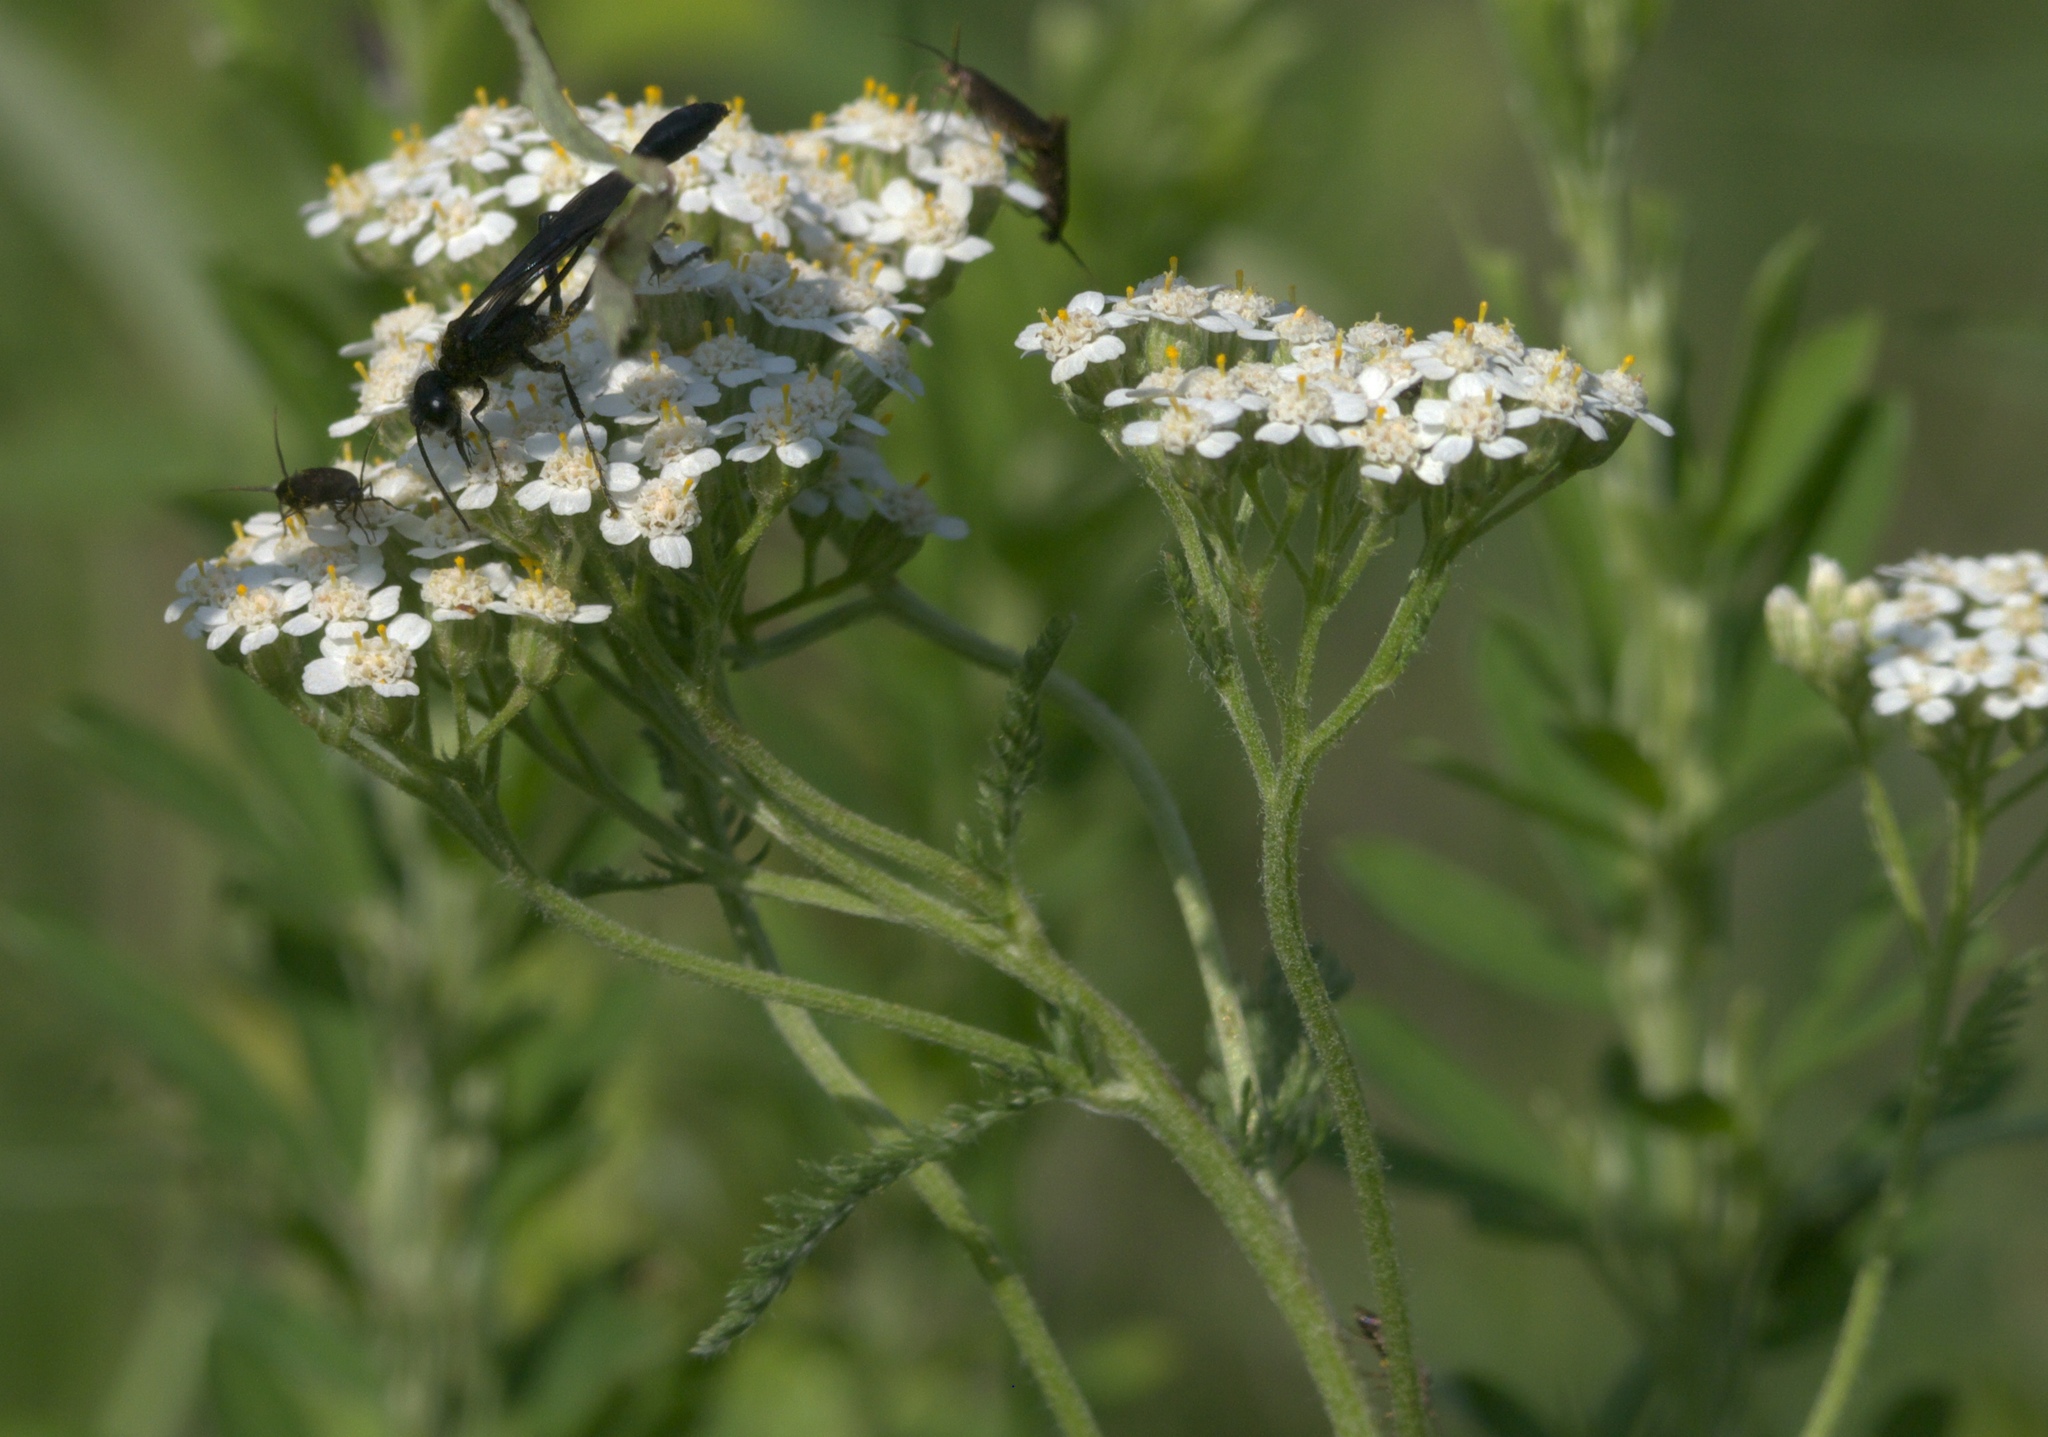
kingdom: Plantae
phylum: Tracheophyta
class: Magnoliopsida
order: Asterales
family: Asteraceae
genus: Achillea
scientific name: Achillea millefolium
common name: Yarrow
